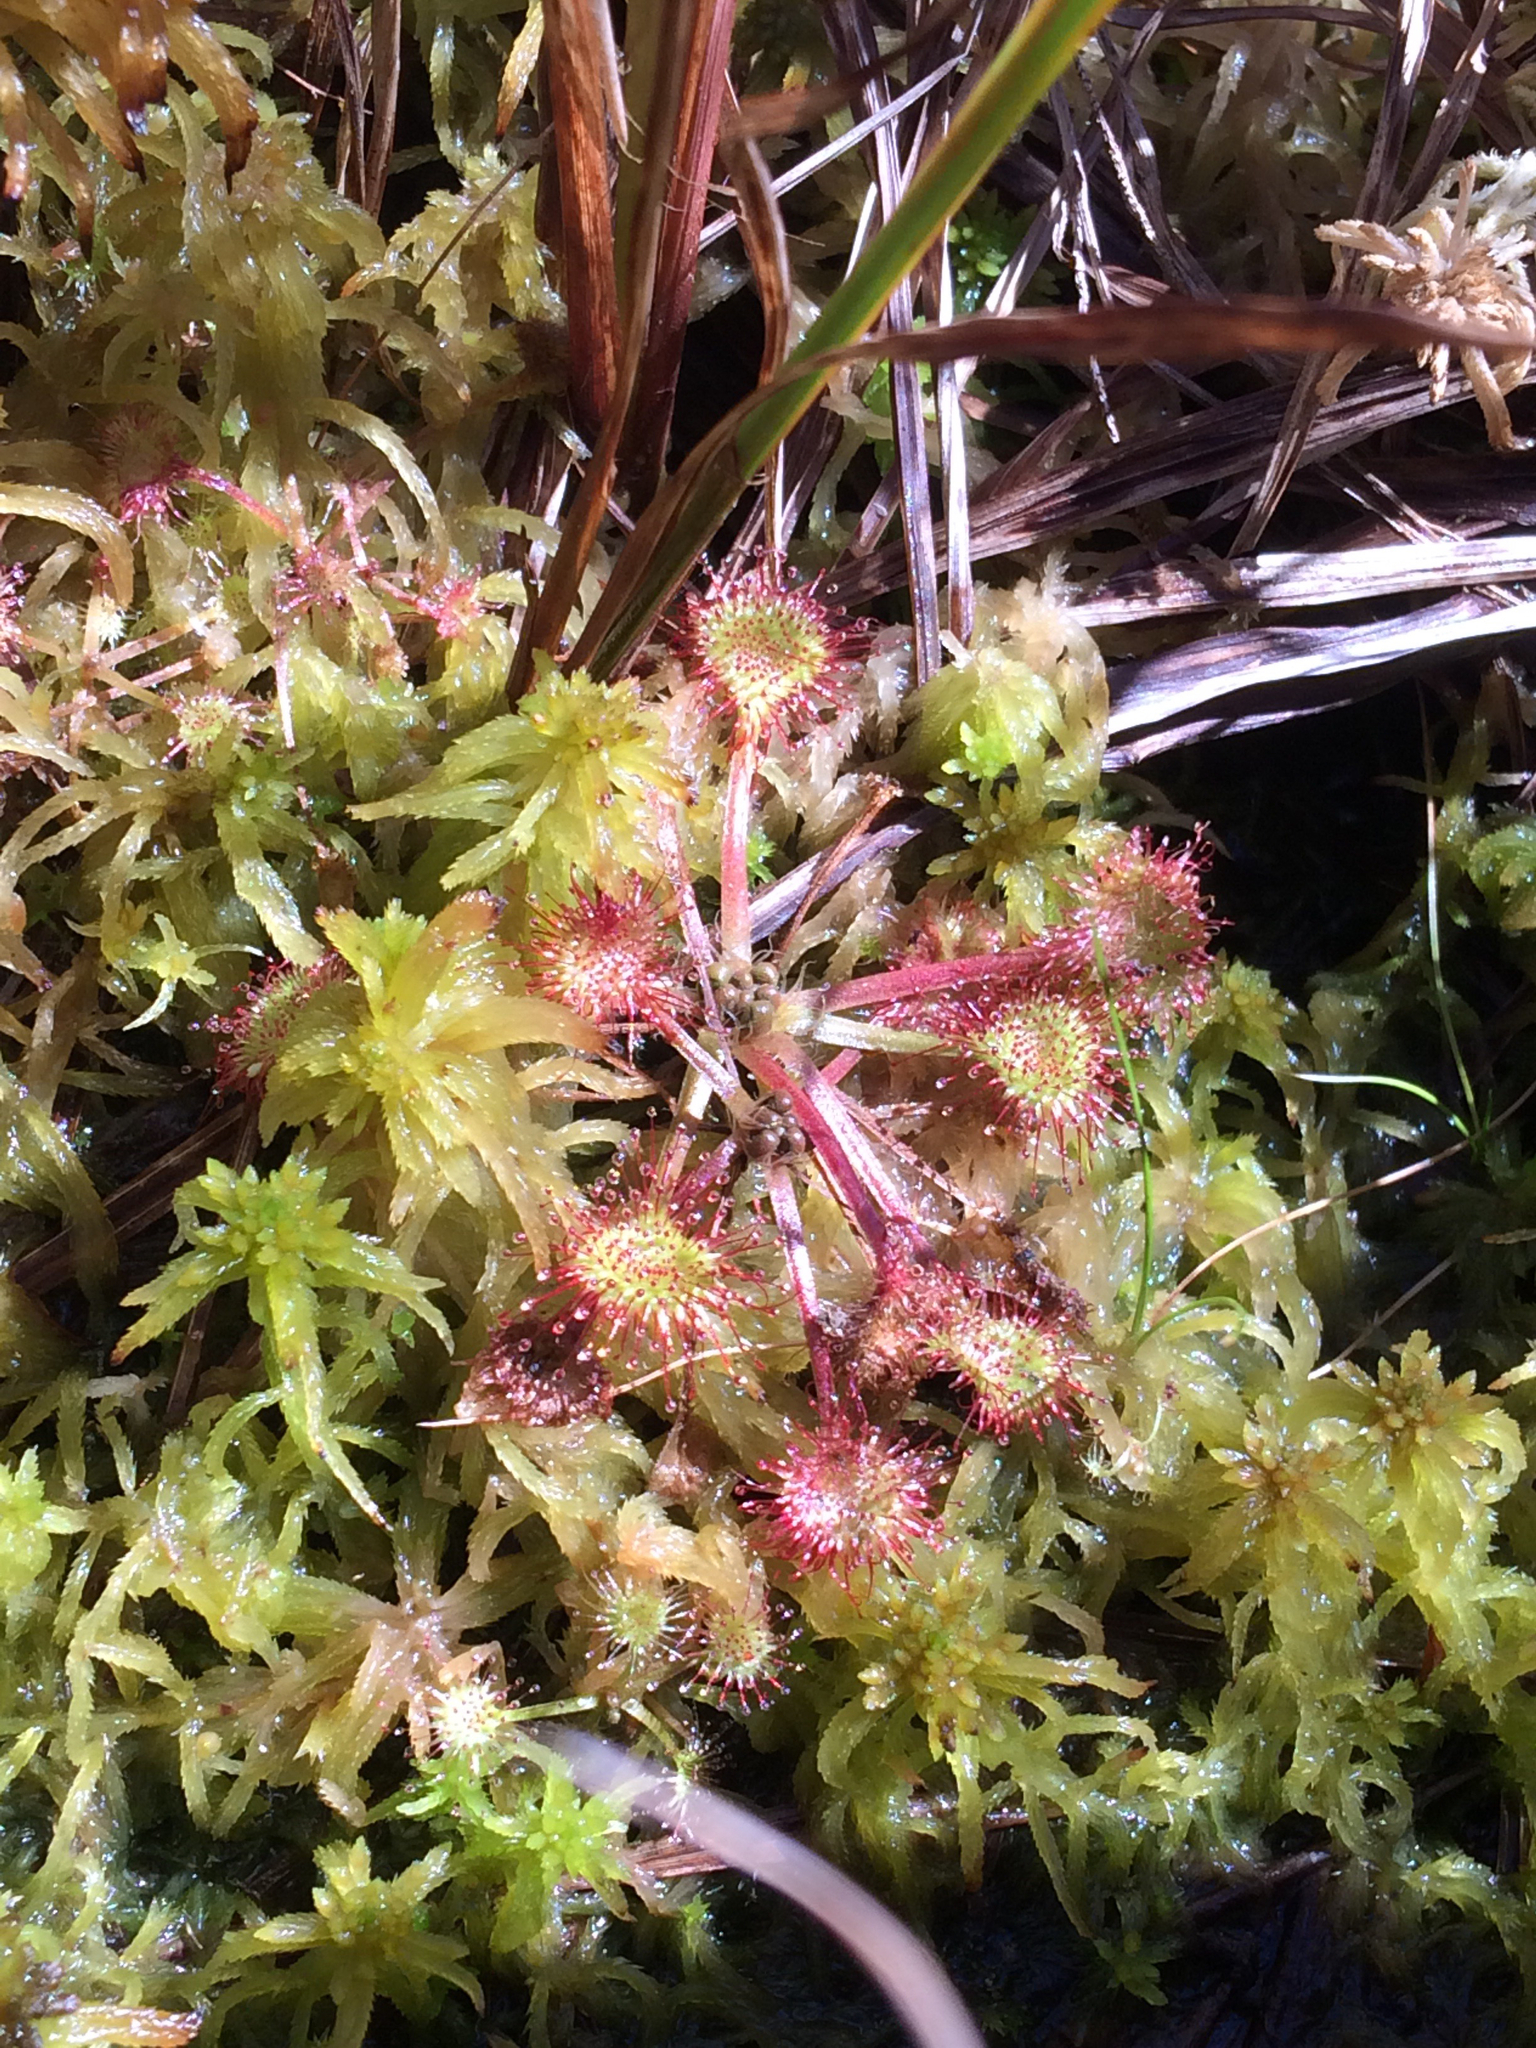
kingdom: Plantae
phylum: Tracheophyta
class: Magnoliopsida
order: Caryophyllales
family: Droseraceae
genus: Drosera
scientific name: Drosera rotundifolia
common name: Round-leaved sundew
